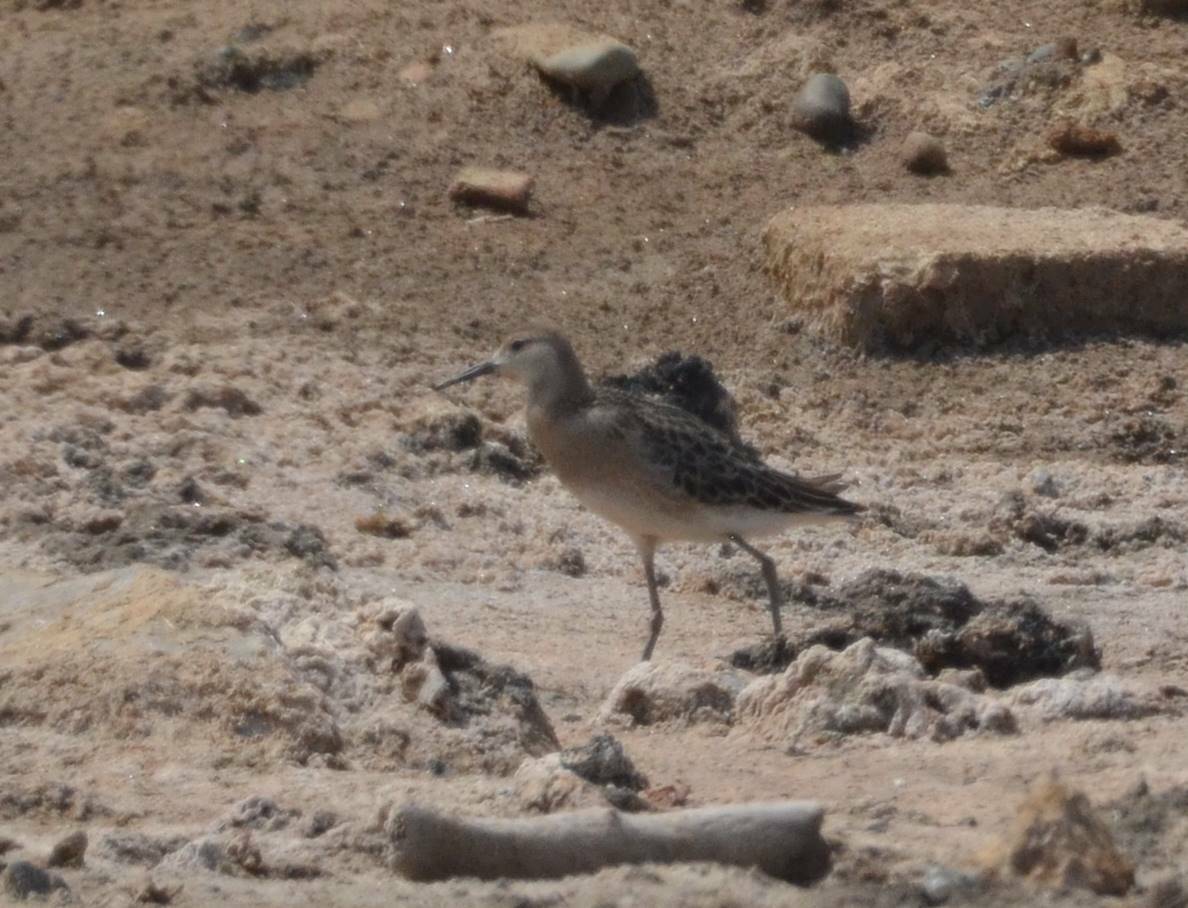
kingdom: Animalia
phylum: Chordata
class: Aves
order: Charadriiformes
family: Scolopacidae
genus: Calidris
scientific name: Calidris pugnax
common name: Ruff
